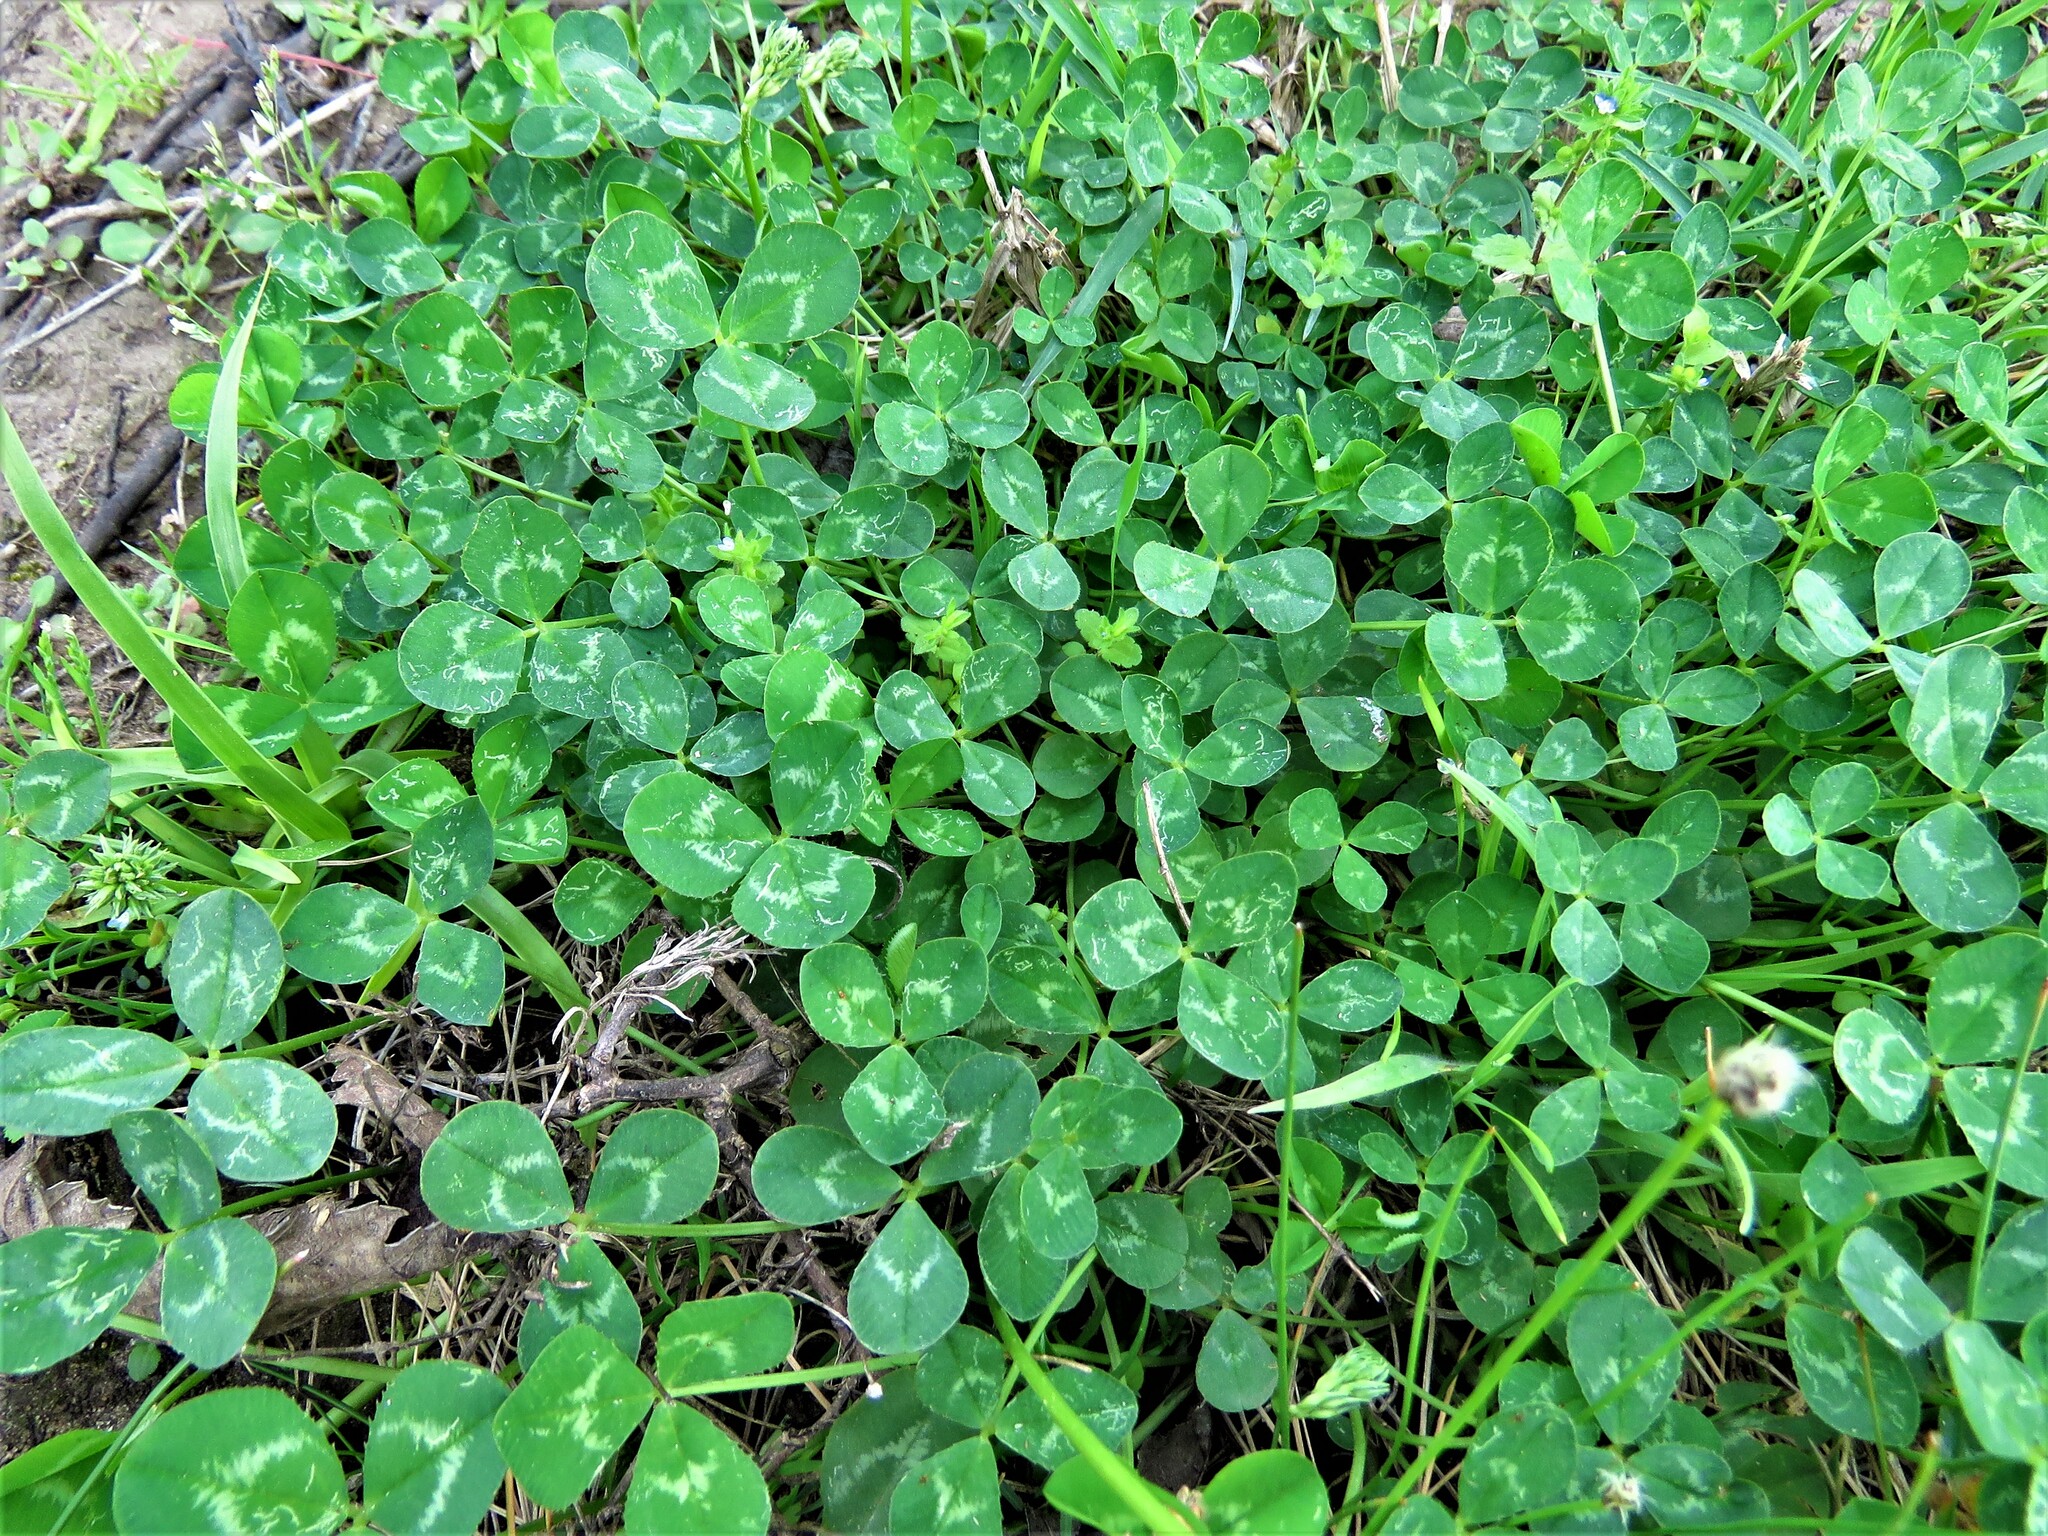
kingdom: Plantae
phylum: Tracheophyta
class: Magnoliopsida
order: Fabales
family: Fabaceae
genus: Trifolium
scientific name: Trifolium repens
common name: White clover
